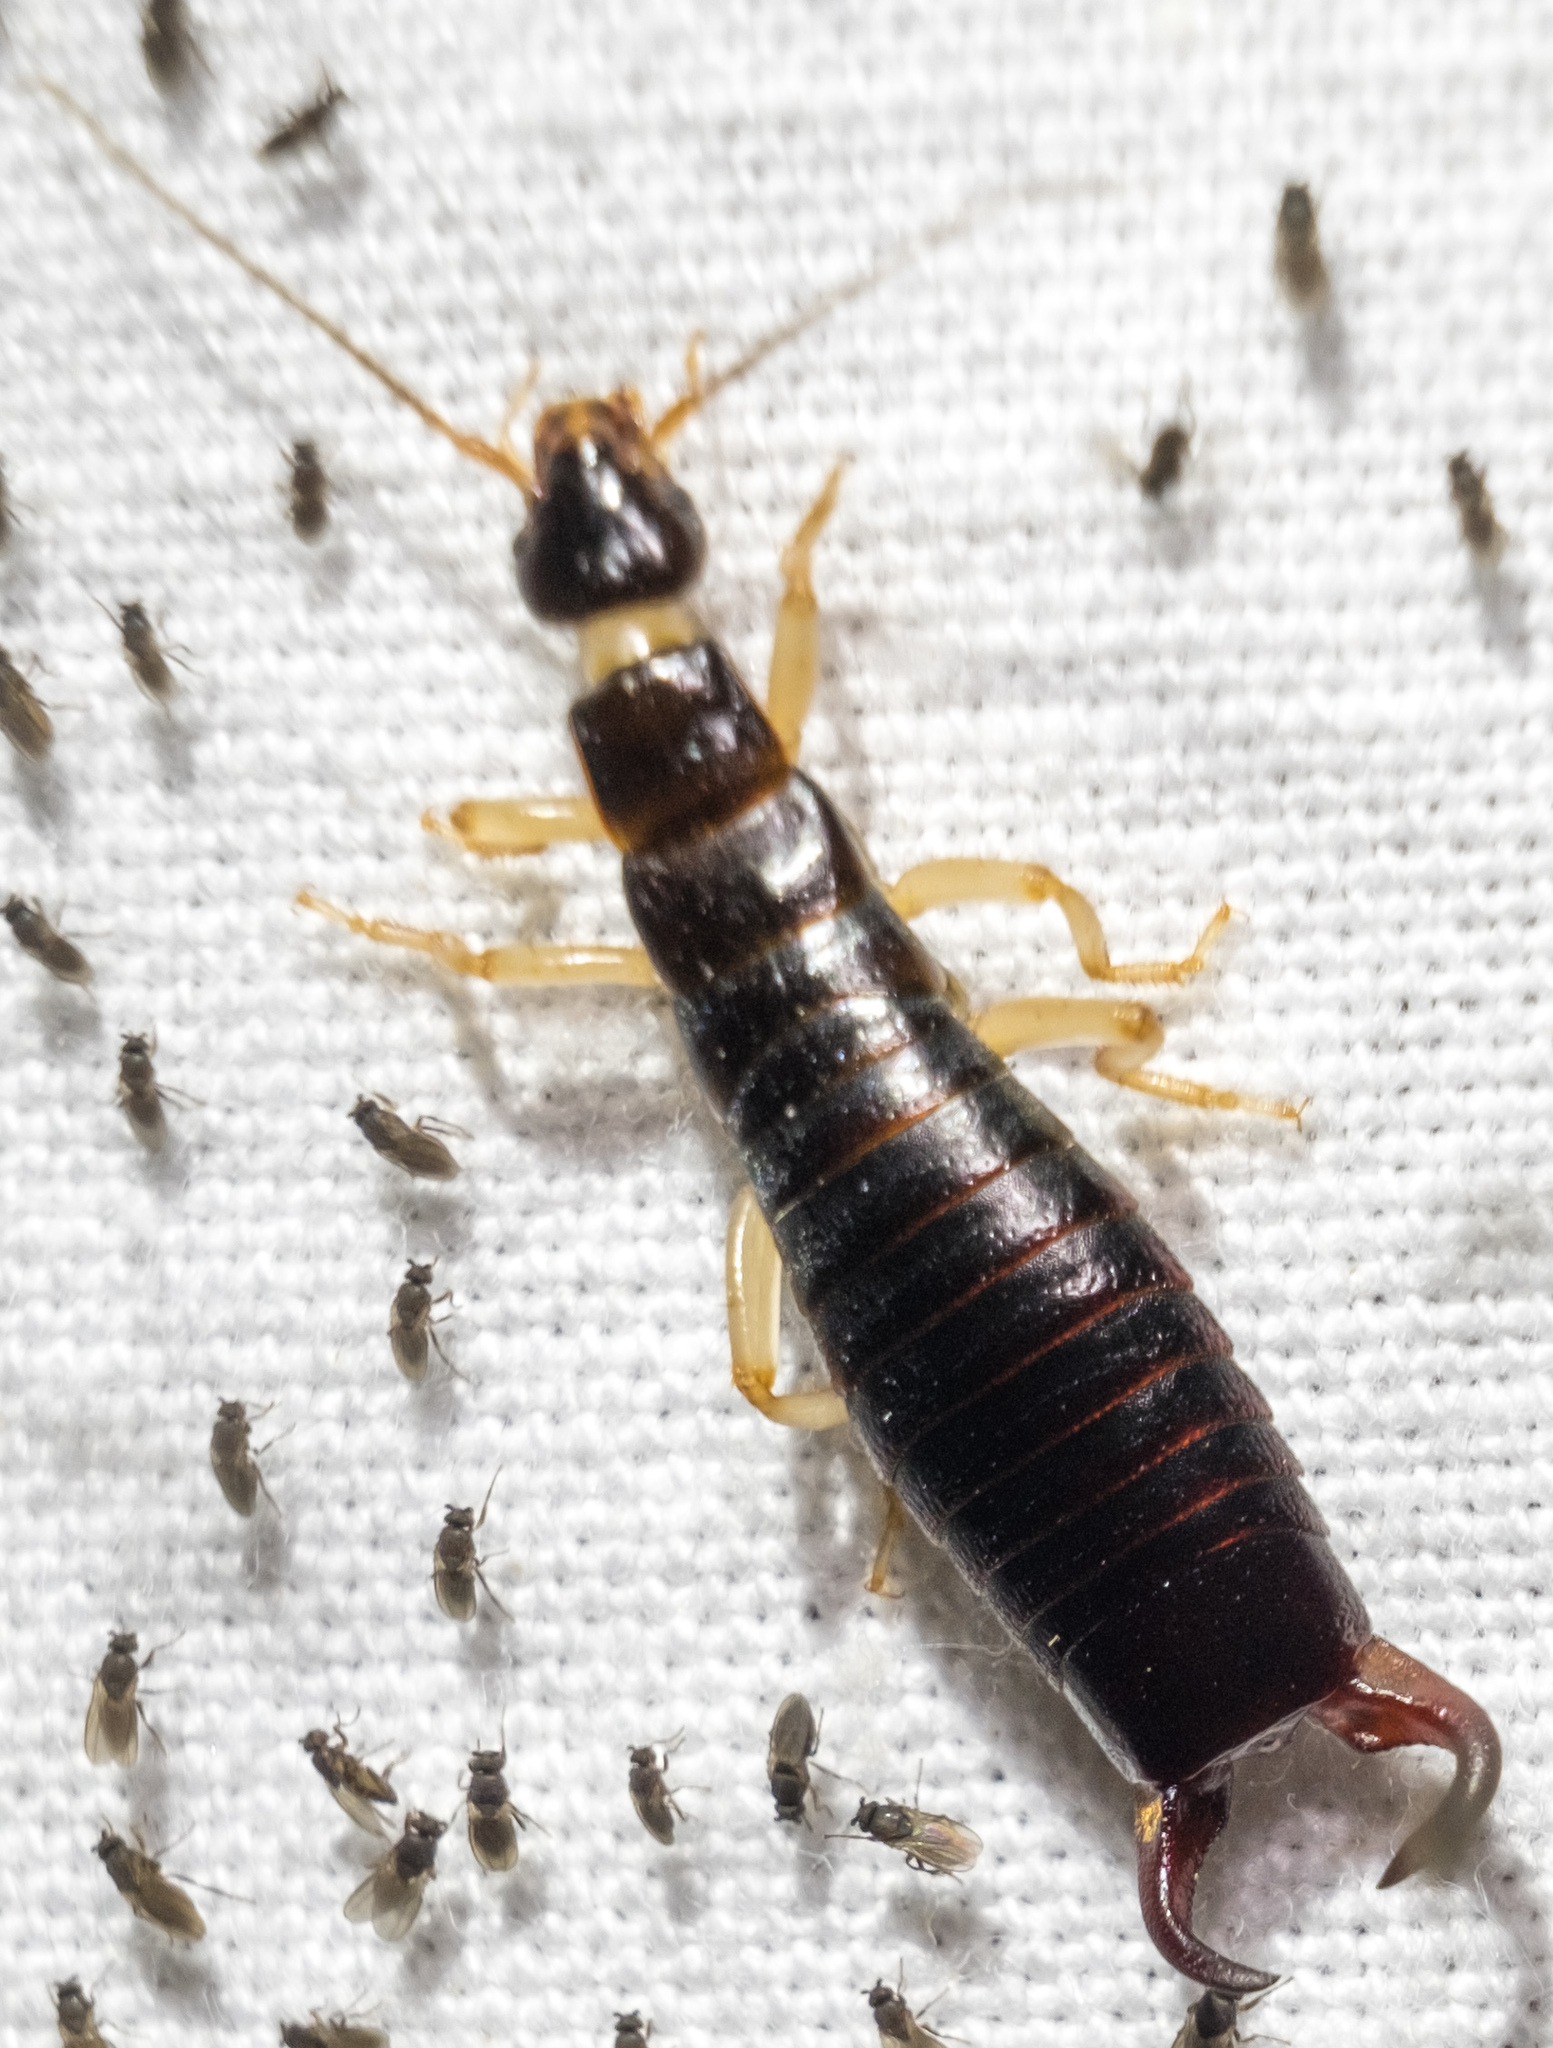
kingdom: Animalia
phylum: Arthropoda
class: Insecta
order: Dermaptera
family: Anisolabididae
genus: Anisolabis
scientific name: Anisolabis maritima
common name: Maritime earwig
